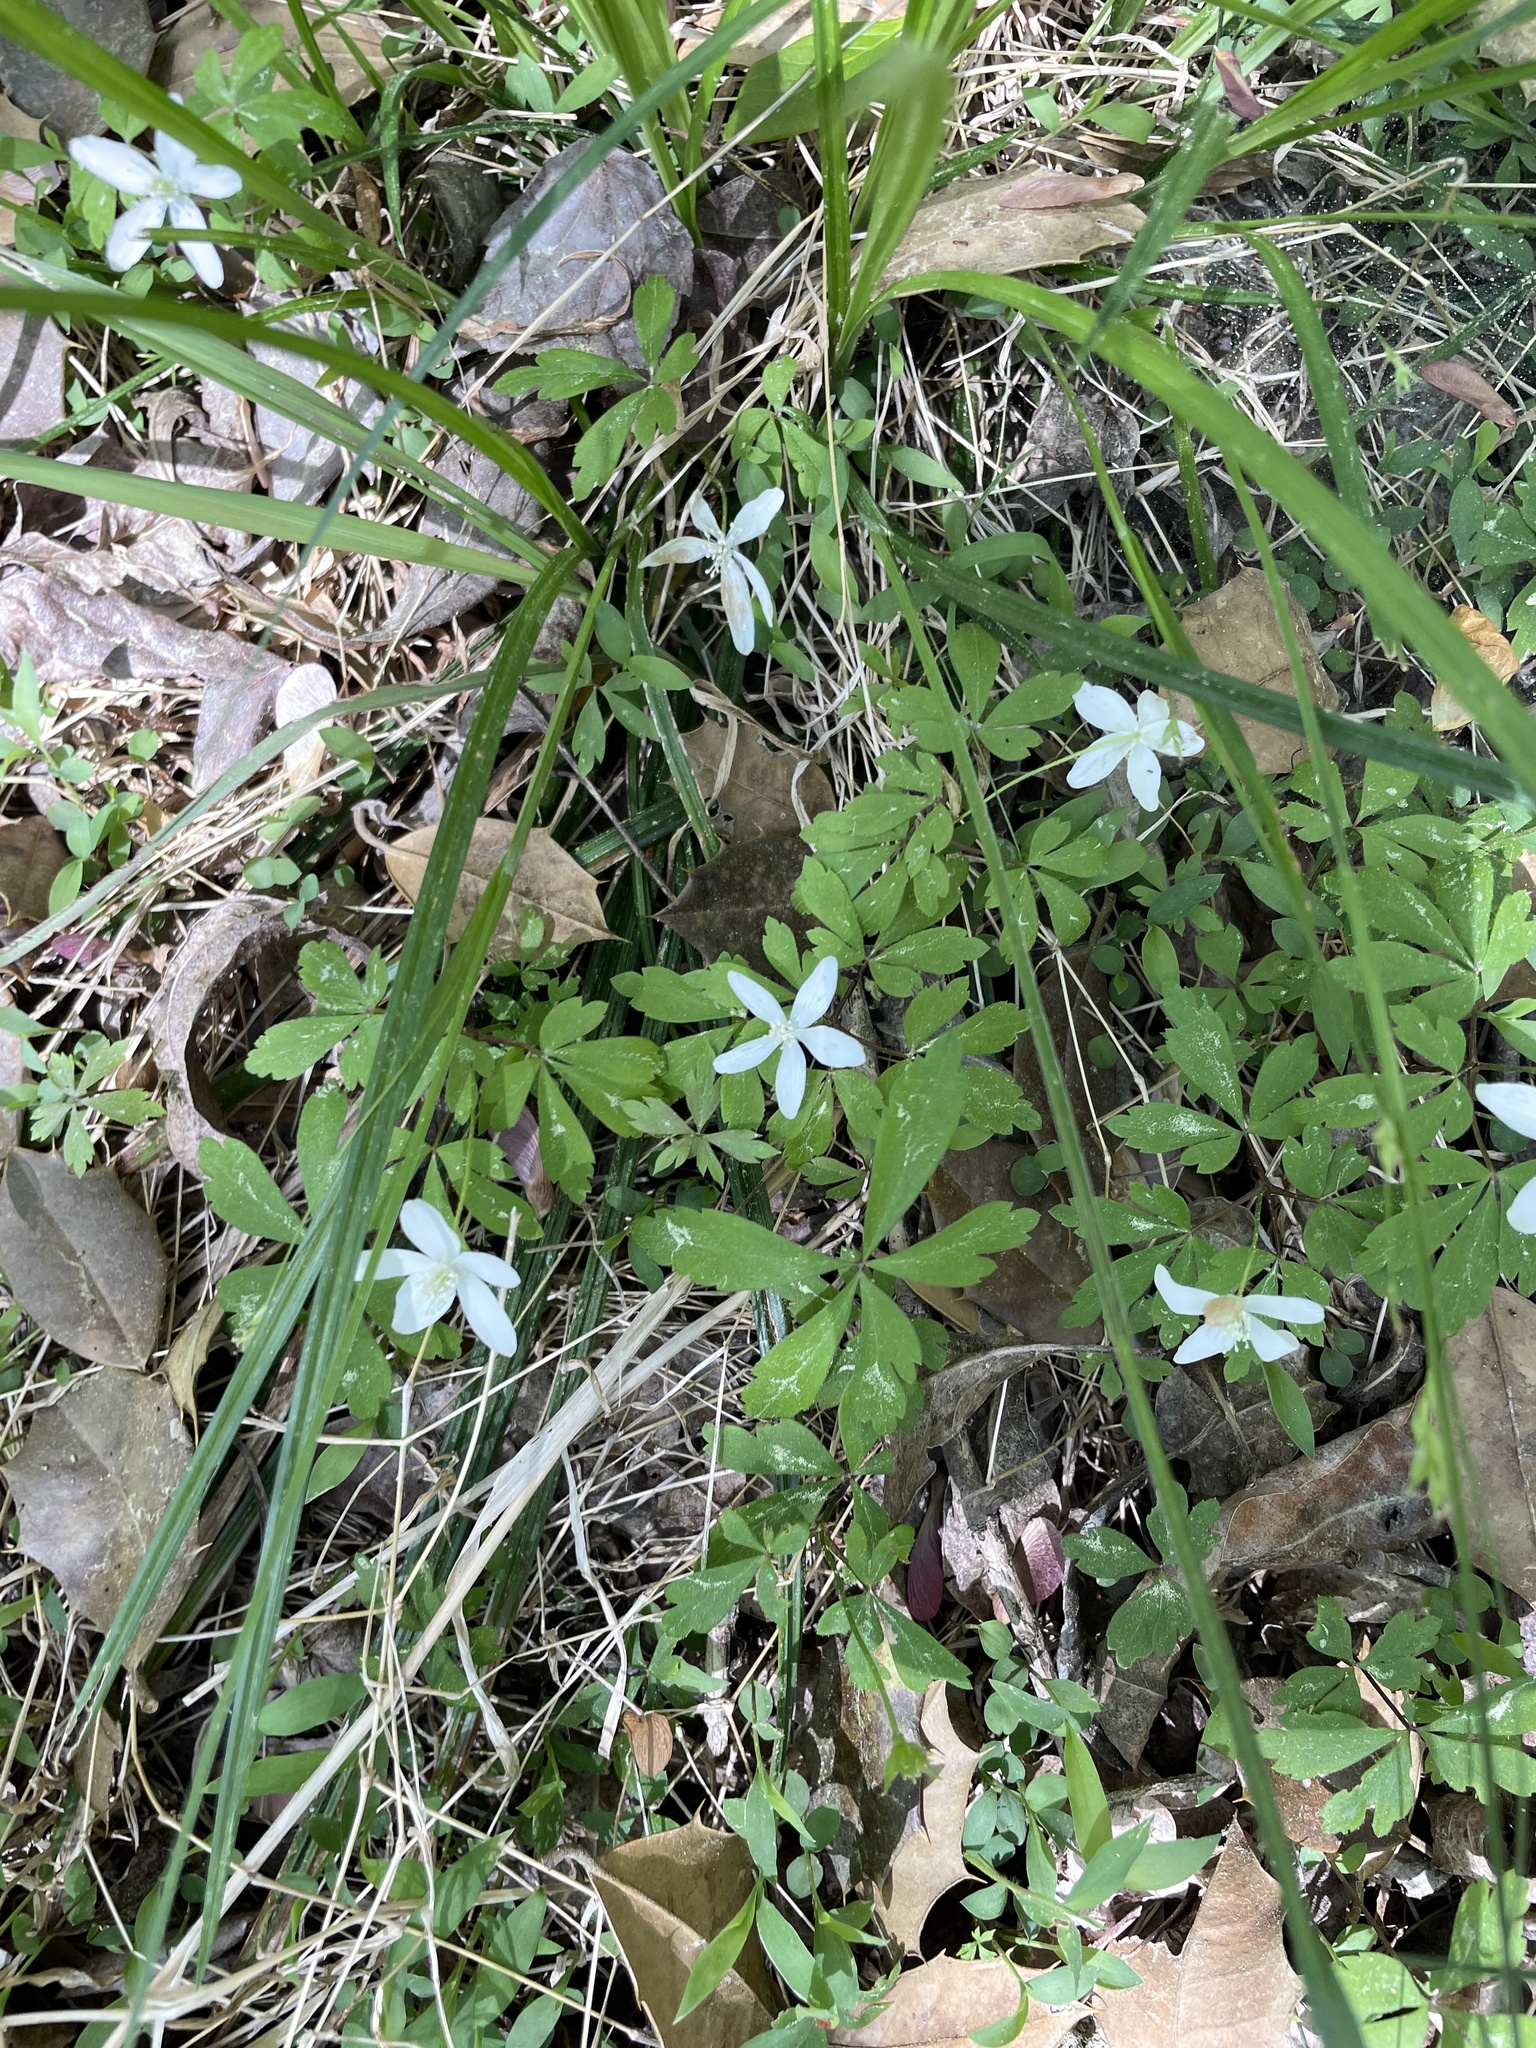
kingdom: Plantae
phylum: Tracheophyta
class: Magnoliopsida
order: Ranunculales
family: Ranunculaceae
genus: Anemone
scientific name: Anemone quinquefolia
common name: Wood anemone
